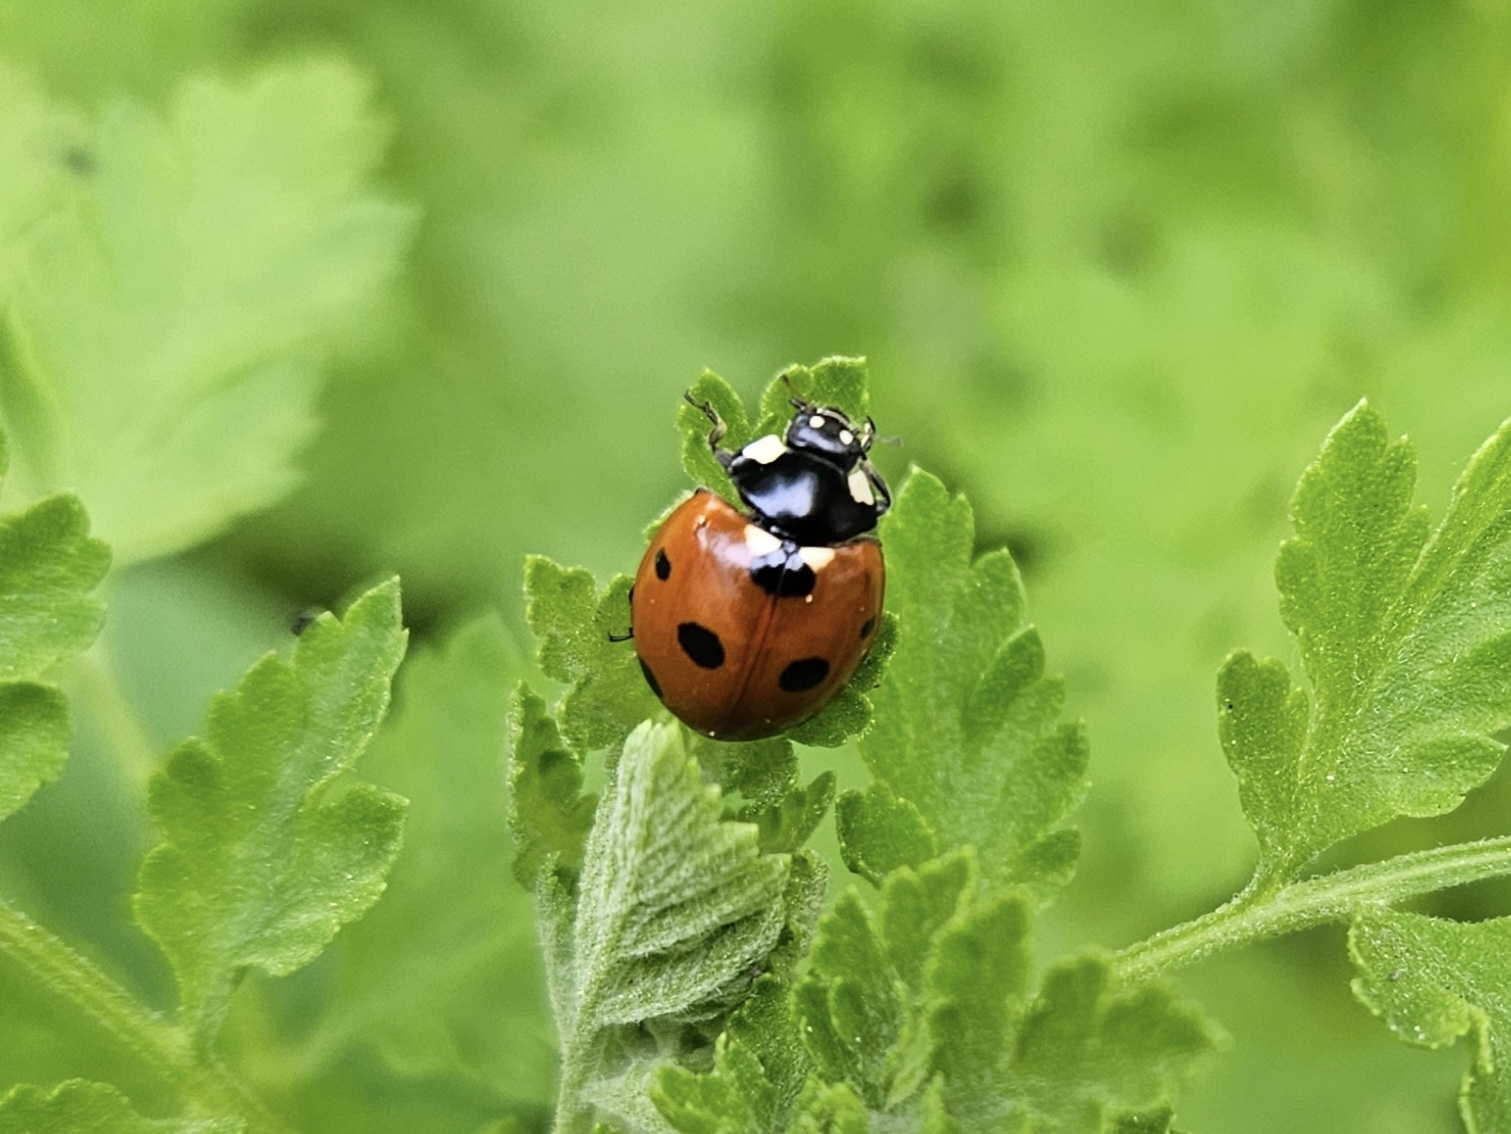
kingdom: Animalia
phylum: Arthropoda
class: Insecta
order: Coleoptera
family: Coccinellidae
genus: Coccinella
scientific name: Coccinella septempunctata
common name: Sevenspotted lady beetle
